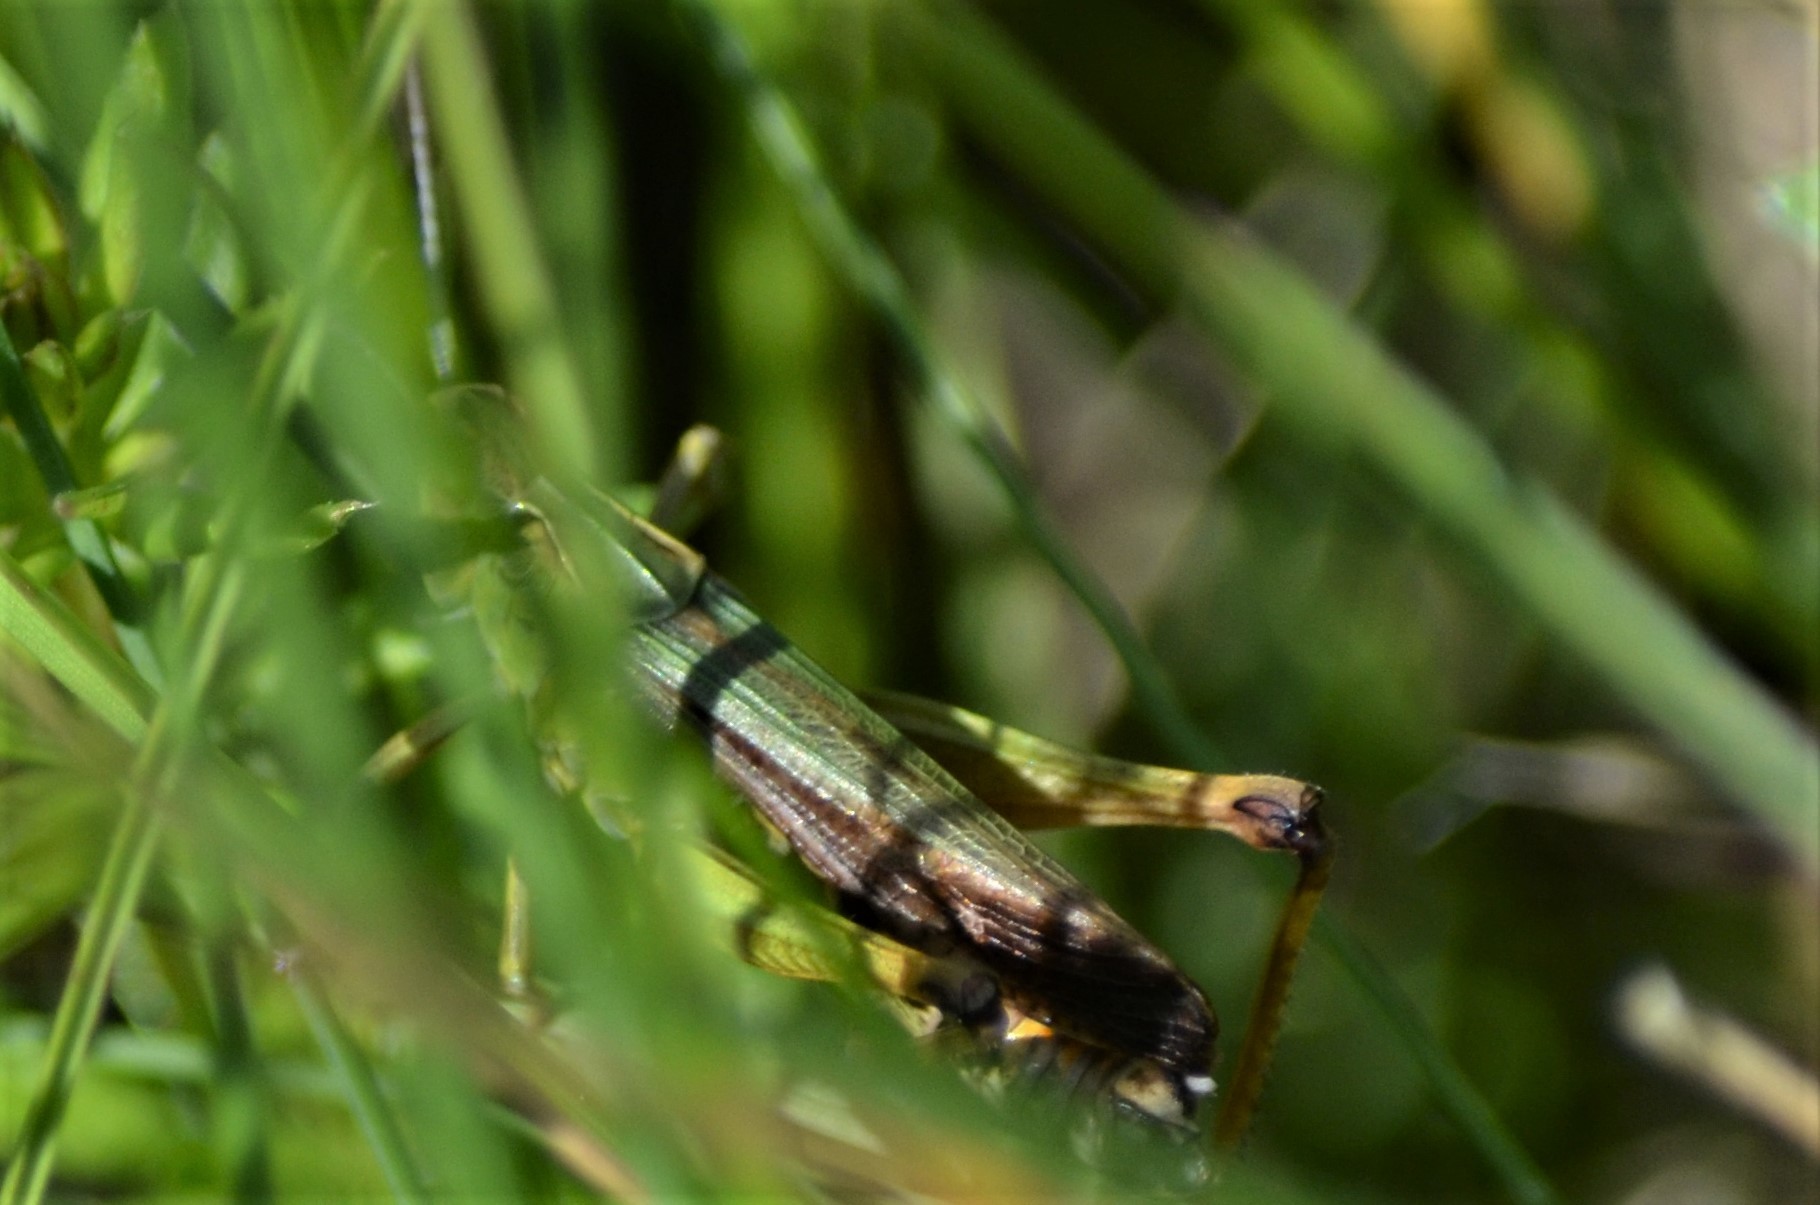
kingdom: Animalia
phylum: Arthropoda
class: Insecta
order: Orthoptera
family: Acrididae
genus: Omocestus
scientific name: Omocestus viridulus
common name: Common green grasshopper
